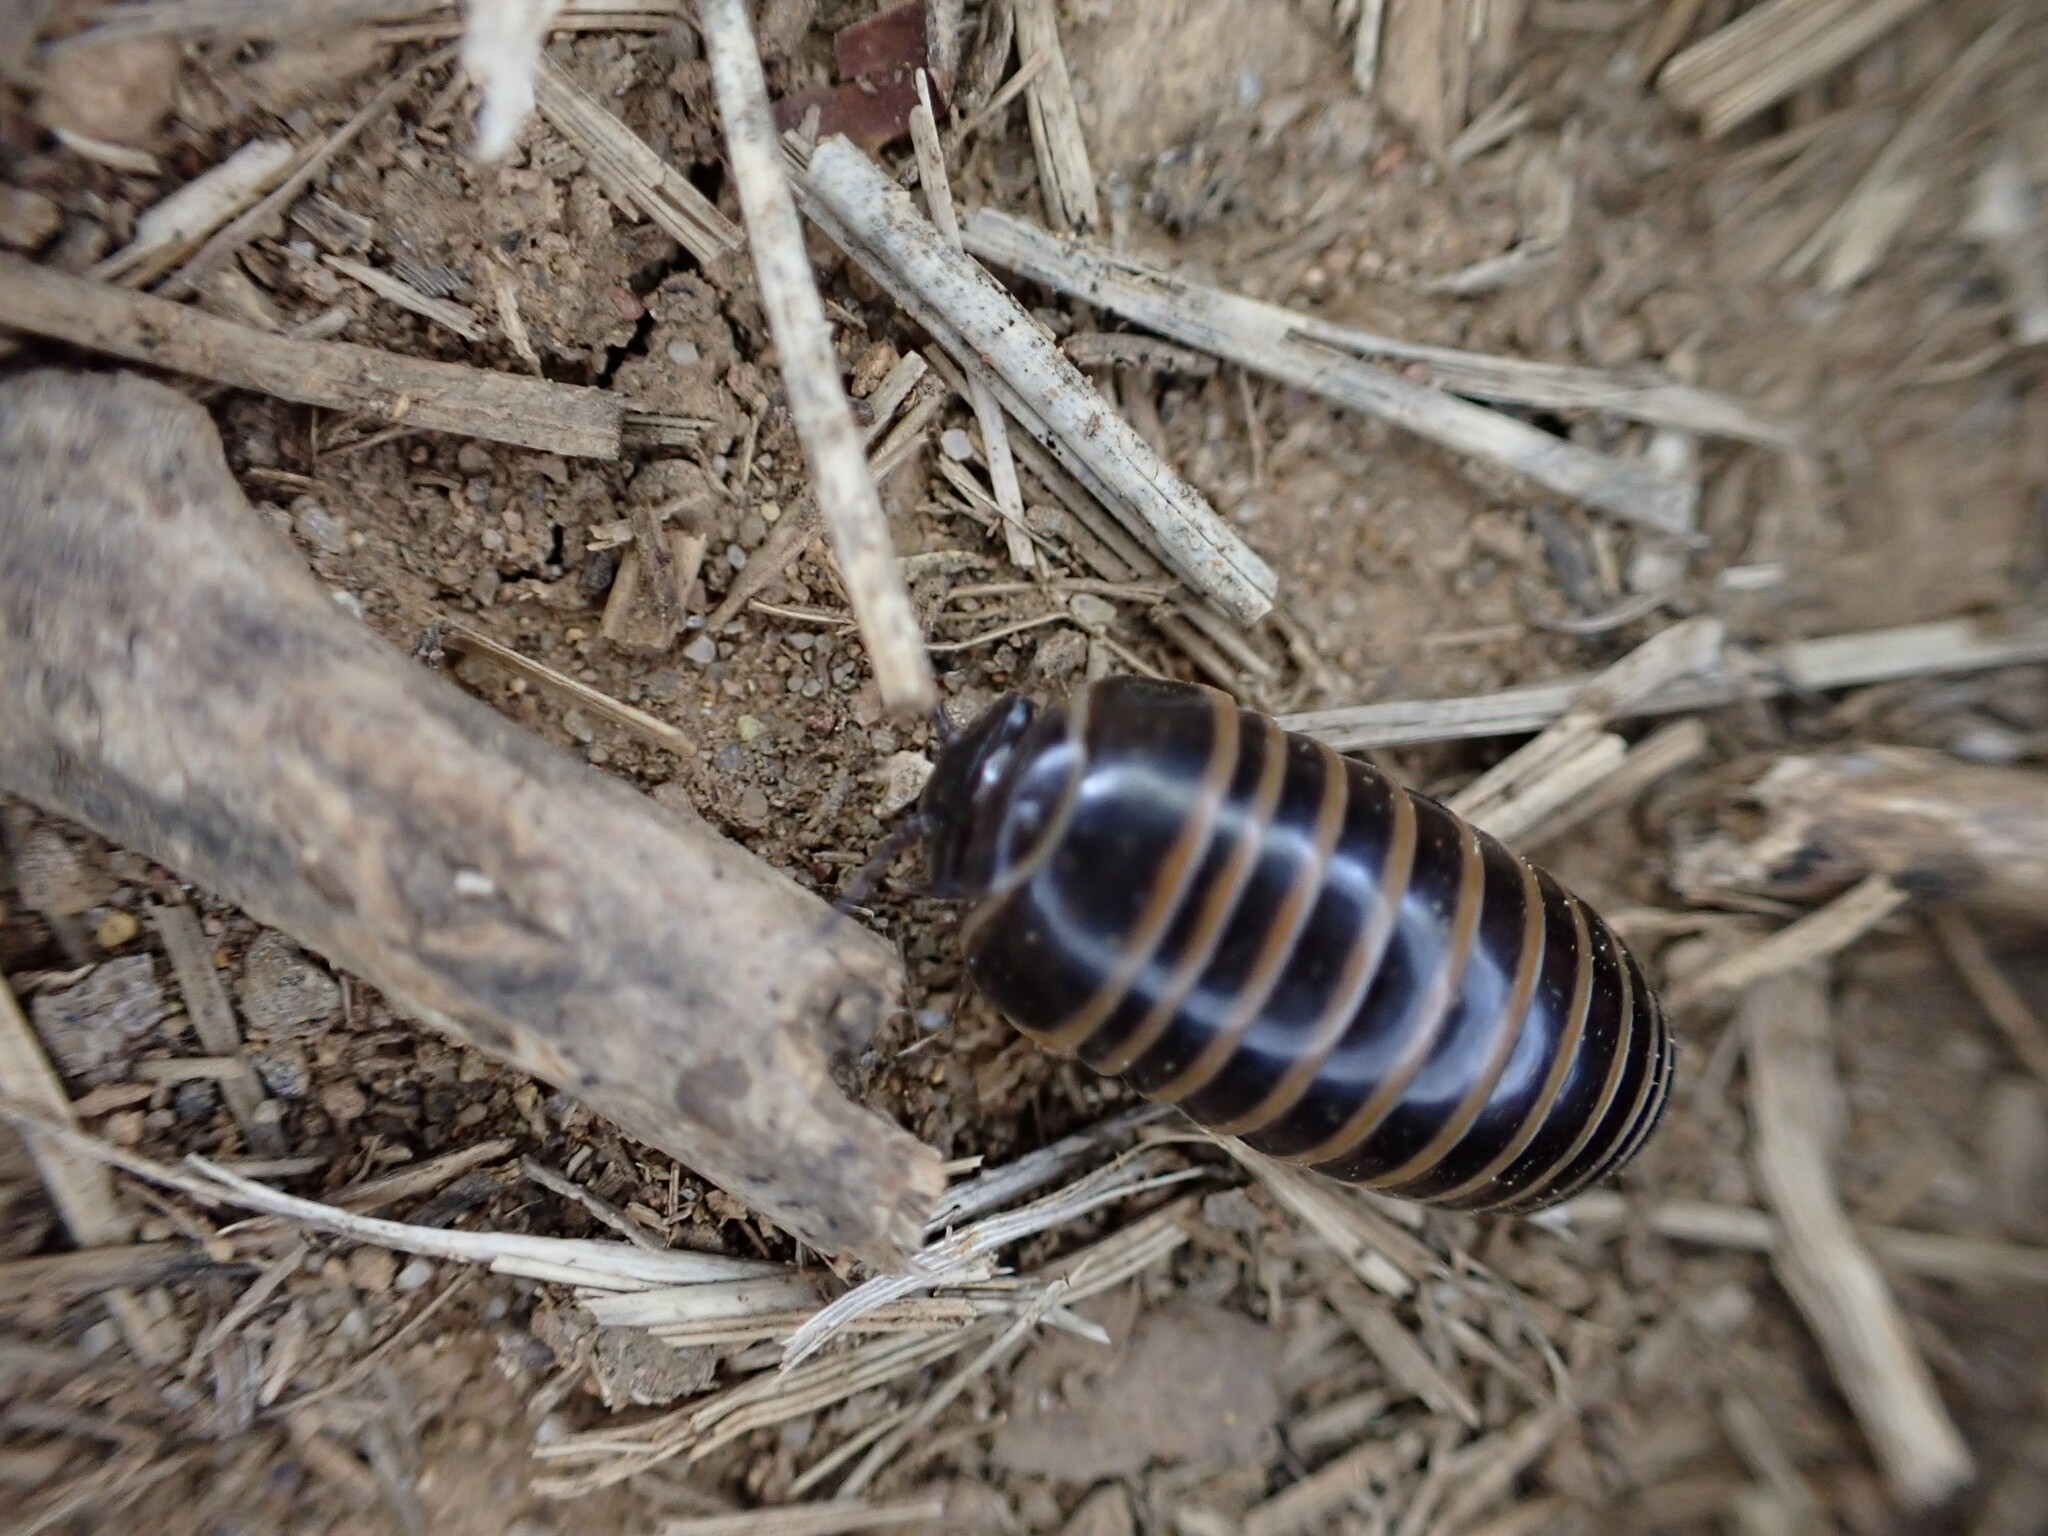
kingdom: Animalia
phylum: Arthropoda
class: Diplopoda
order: Glomerida
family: Glomeridae
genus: Glomeris
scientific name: Glomeris marginata
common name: Bordered pill millipede
